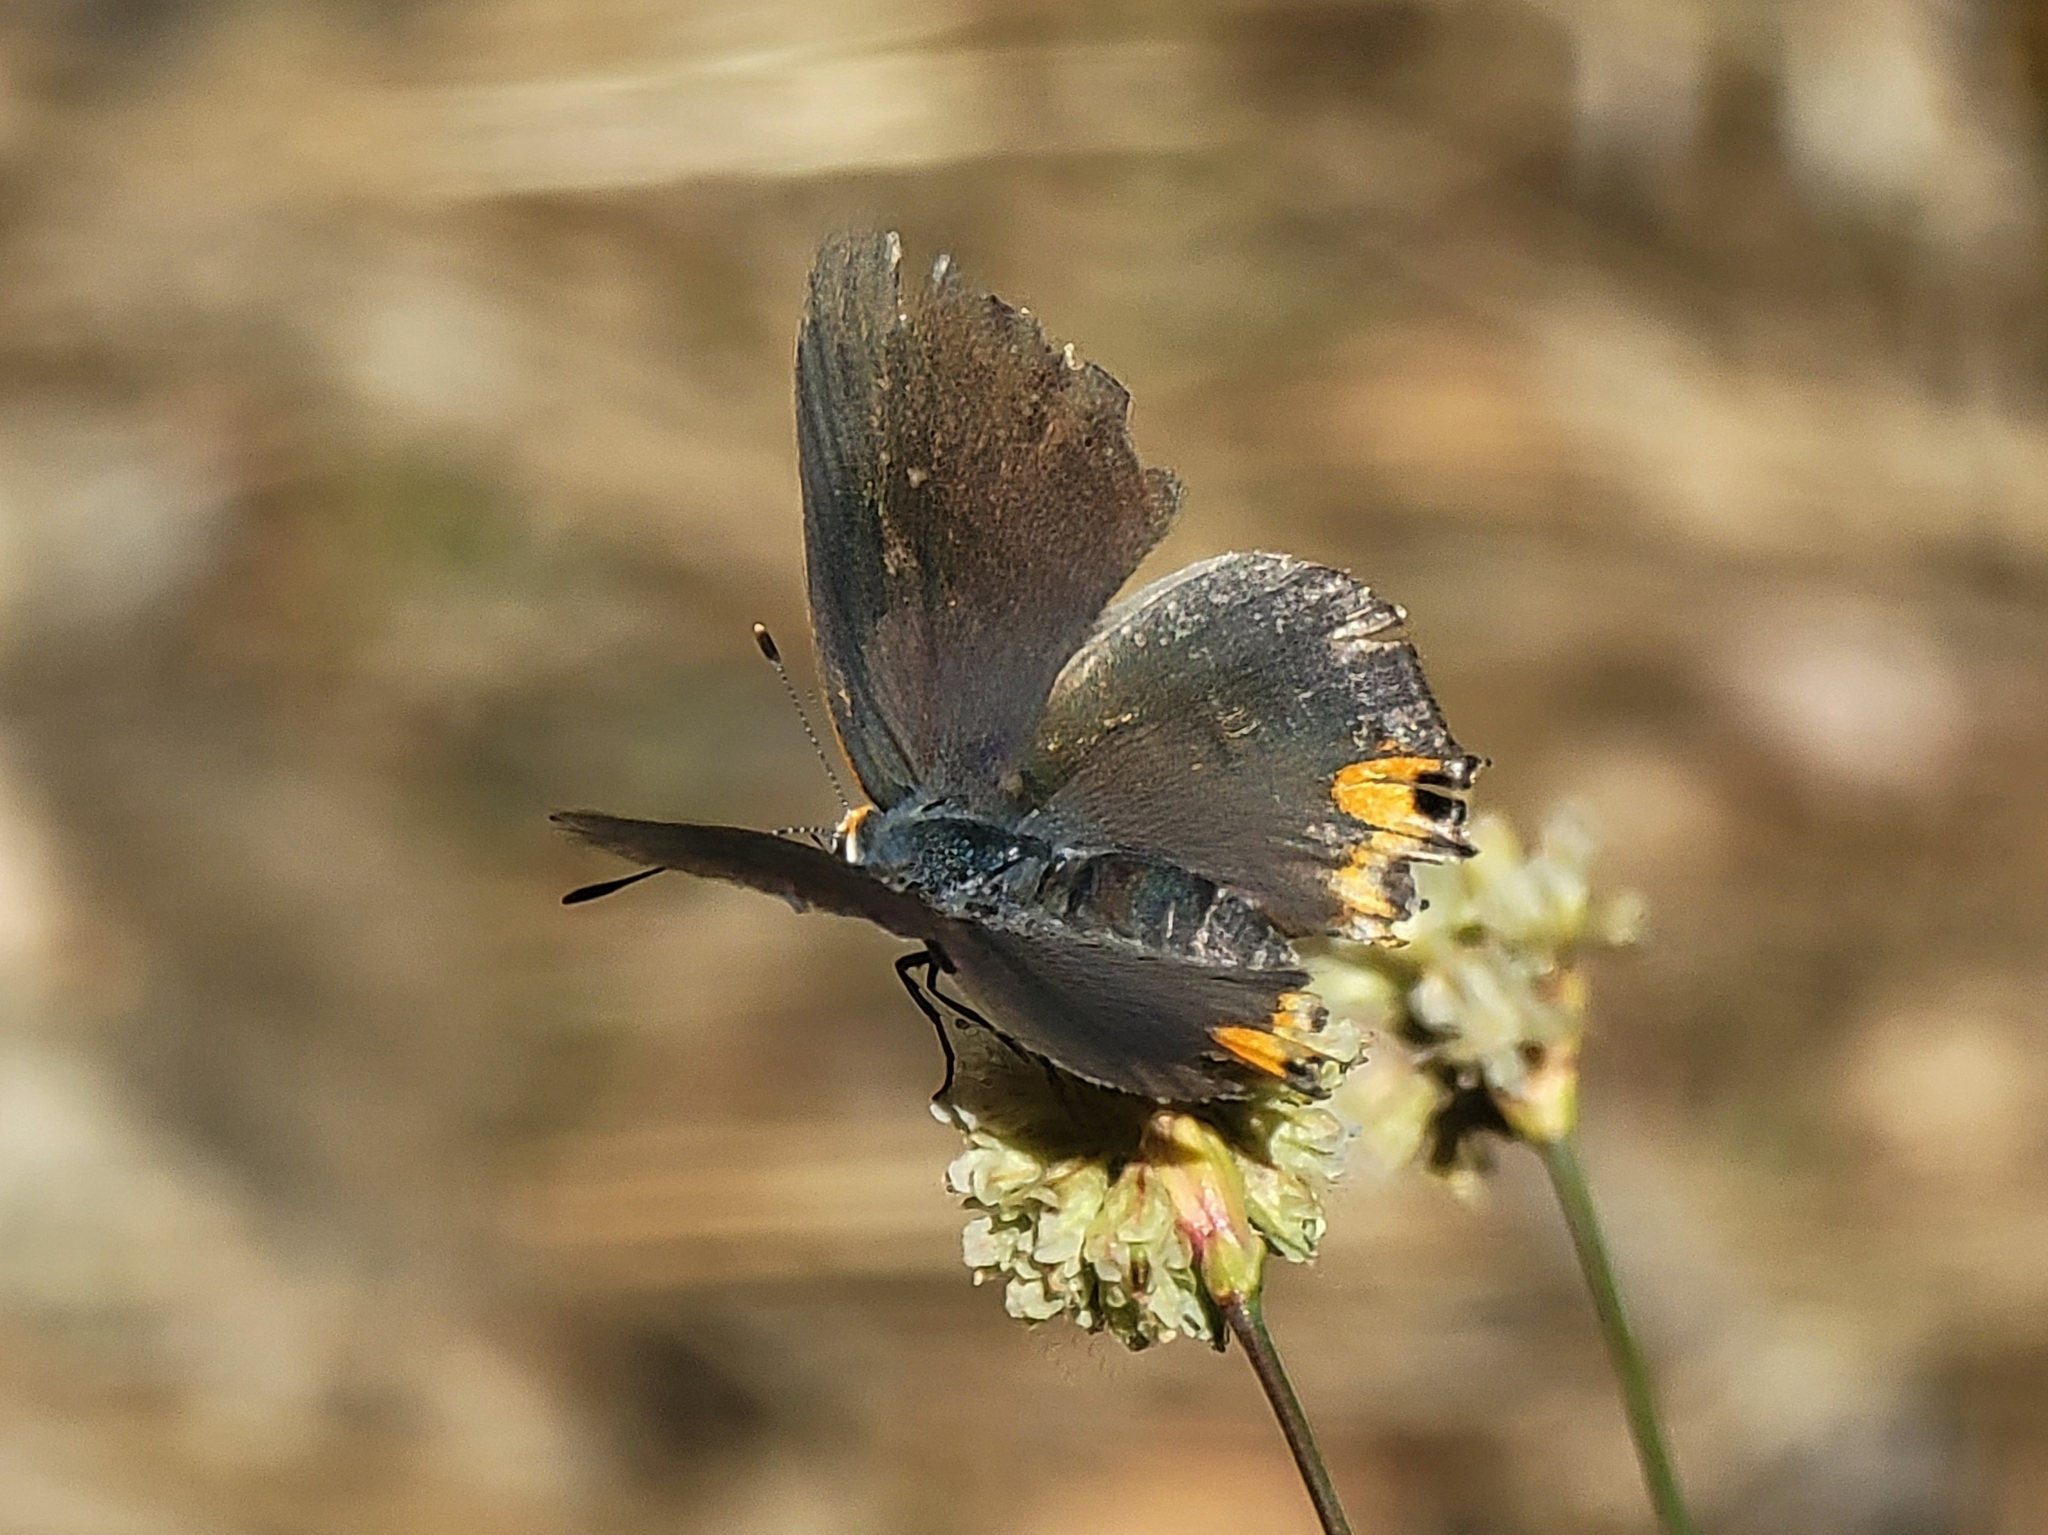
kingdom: Animalia
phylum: Arthropoda
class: Insecta
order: Lepidoptera
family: Lycaenidae
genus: Strymon
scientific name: Strymon melinus
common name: Gray hairstreak
